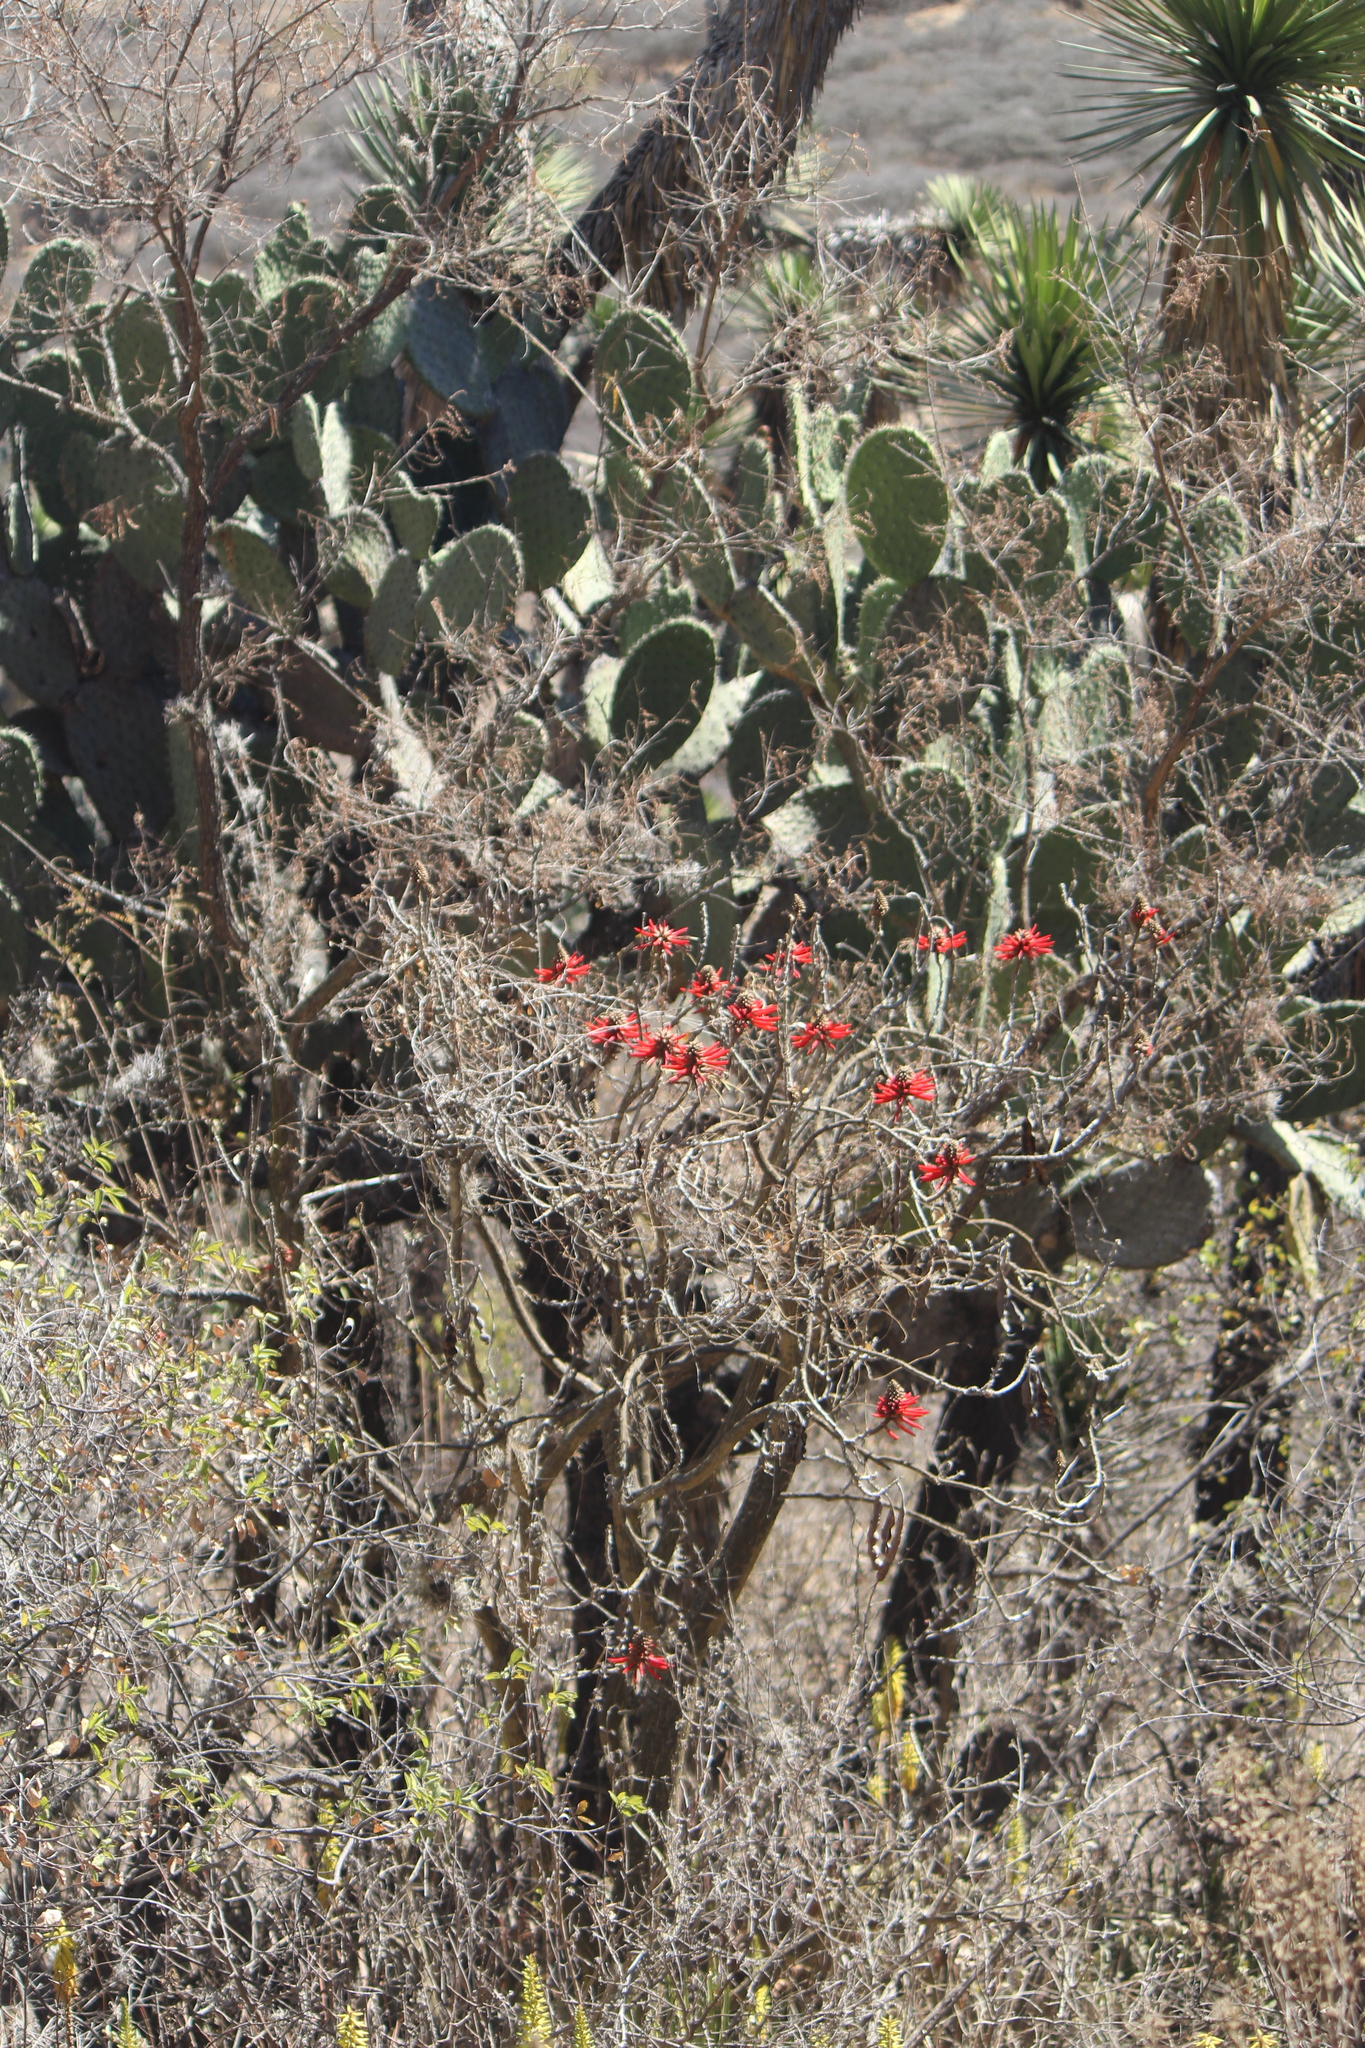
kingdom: Plantae
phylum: Tracheophyta
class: Magnoliopsida
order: Fabales
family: Fabaceae
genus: Erythrina
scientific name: Erythrina americana
